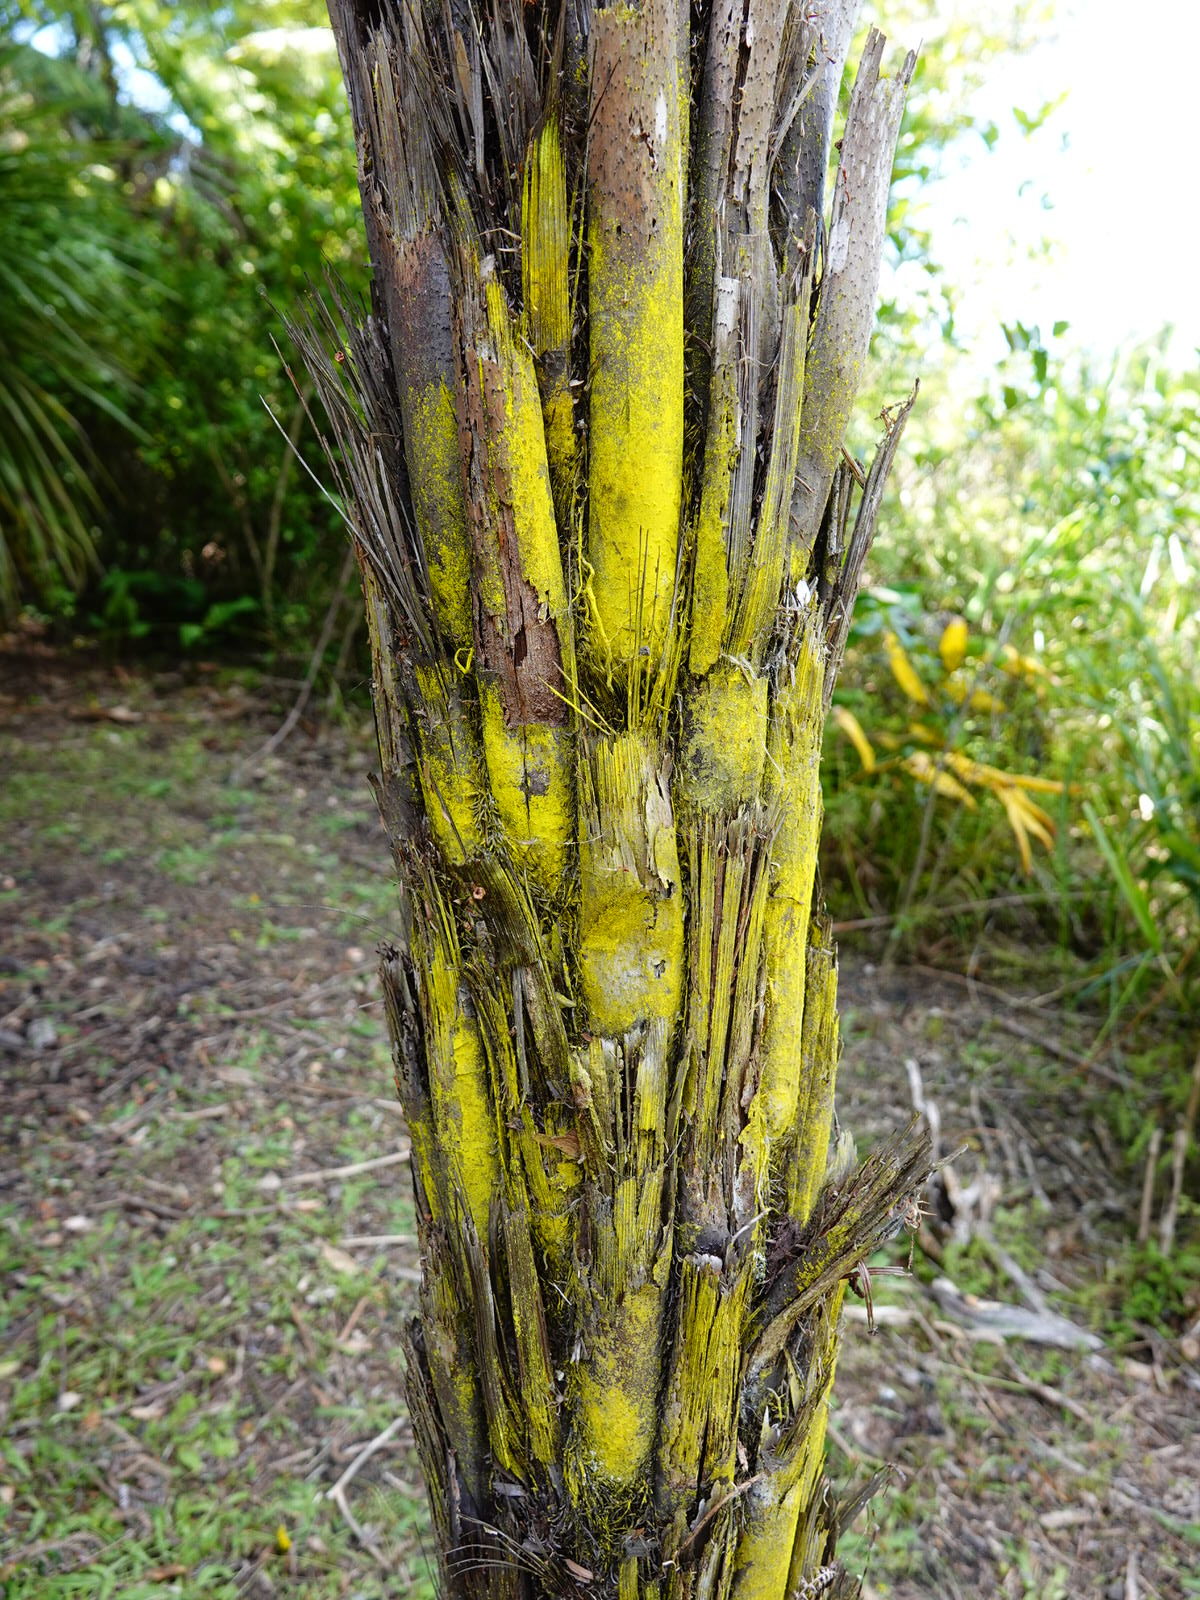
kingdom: Fungi
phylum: Ascomycota
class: Arthoniomycetes
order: Arthoniales
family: Chrysotrichaceae
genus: Chrysothrix
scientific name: Chrysothrix xanthina
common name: Common gold-dust
